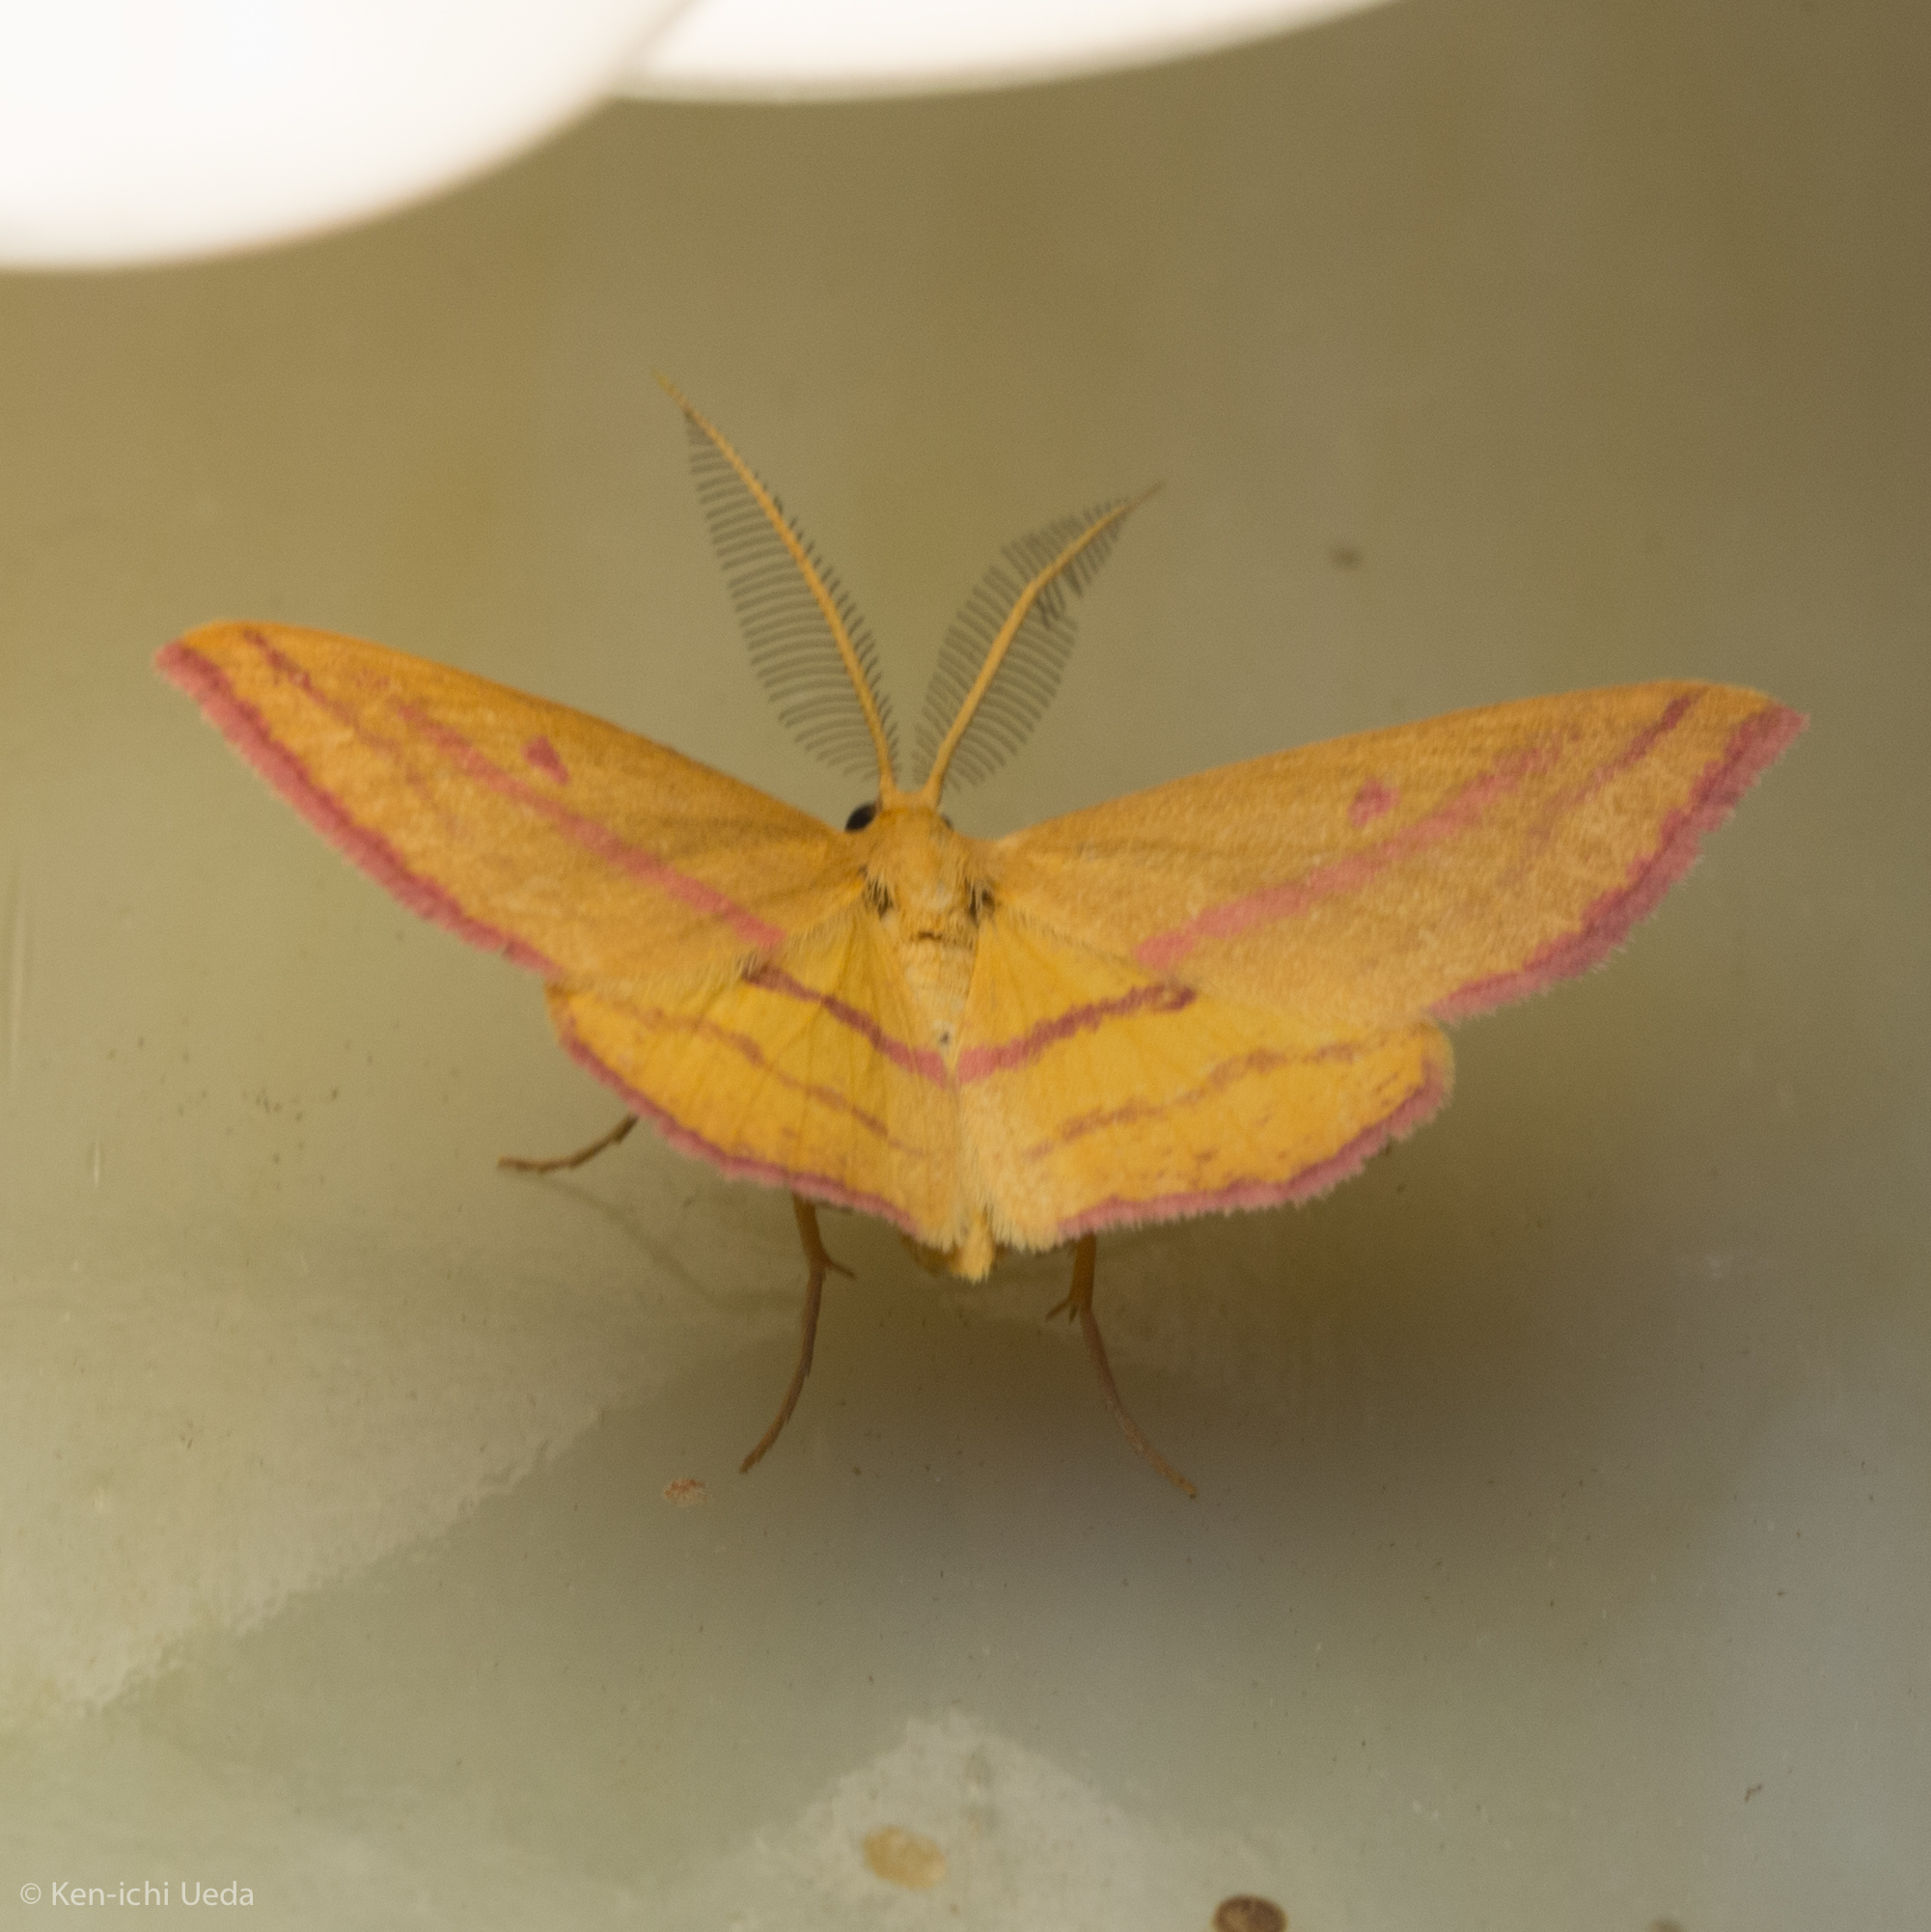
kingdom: Animalia
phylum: Arthropoda
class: Insecta
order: Lepidoptera
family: Geometridae
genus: Haematopis
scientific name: Haematopis grataria
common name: Chickweed geometer
